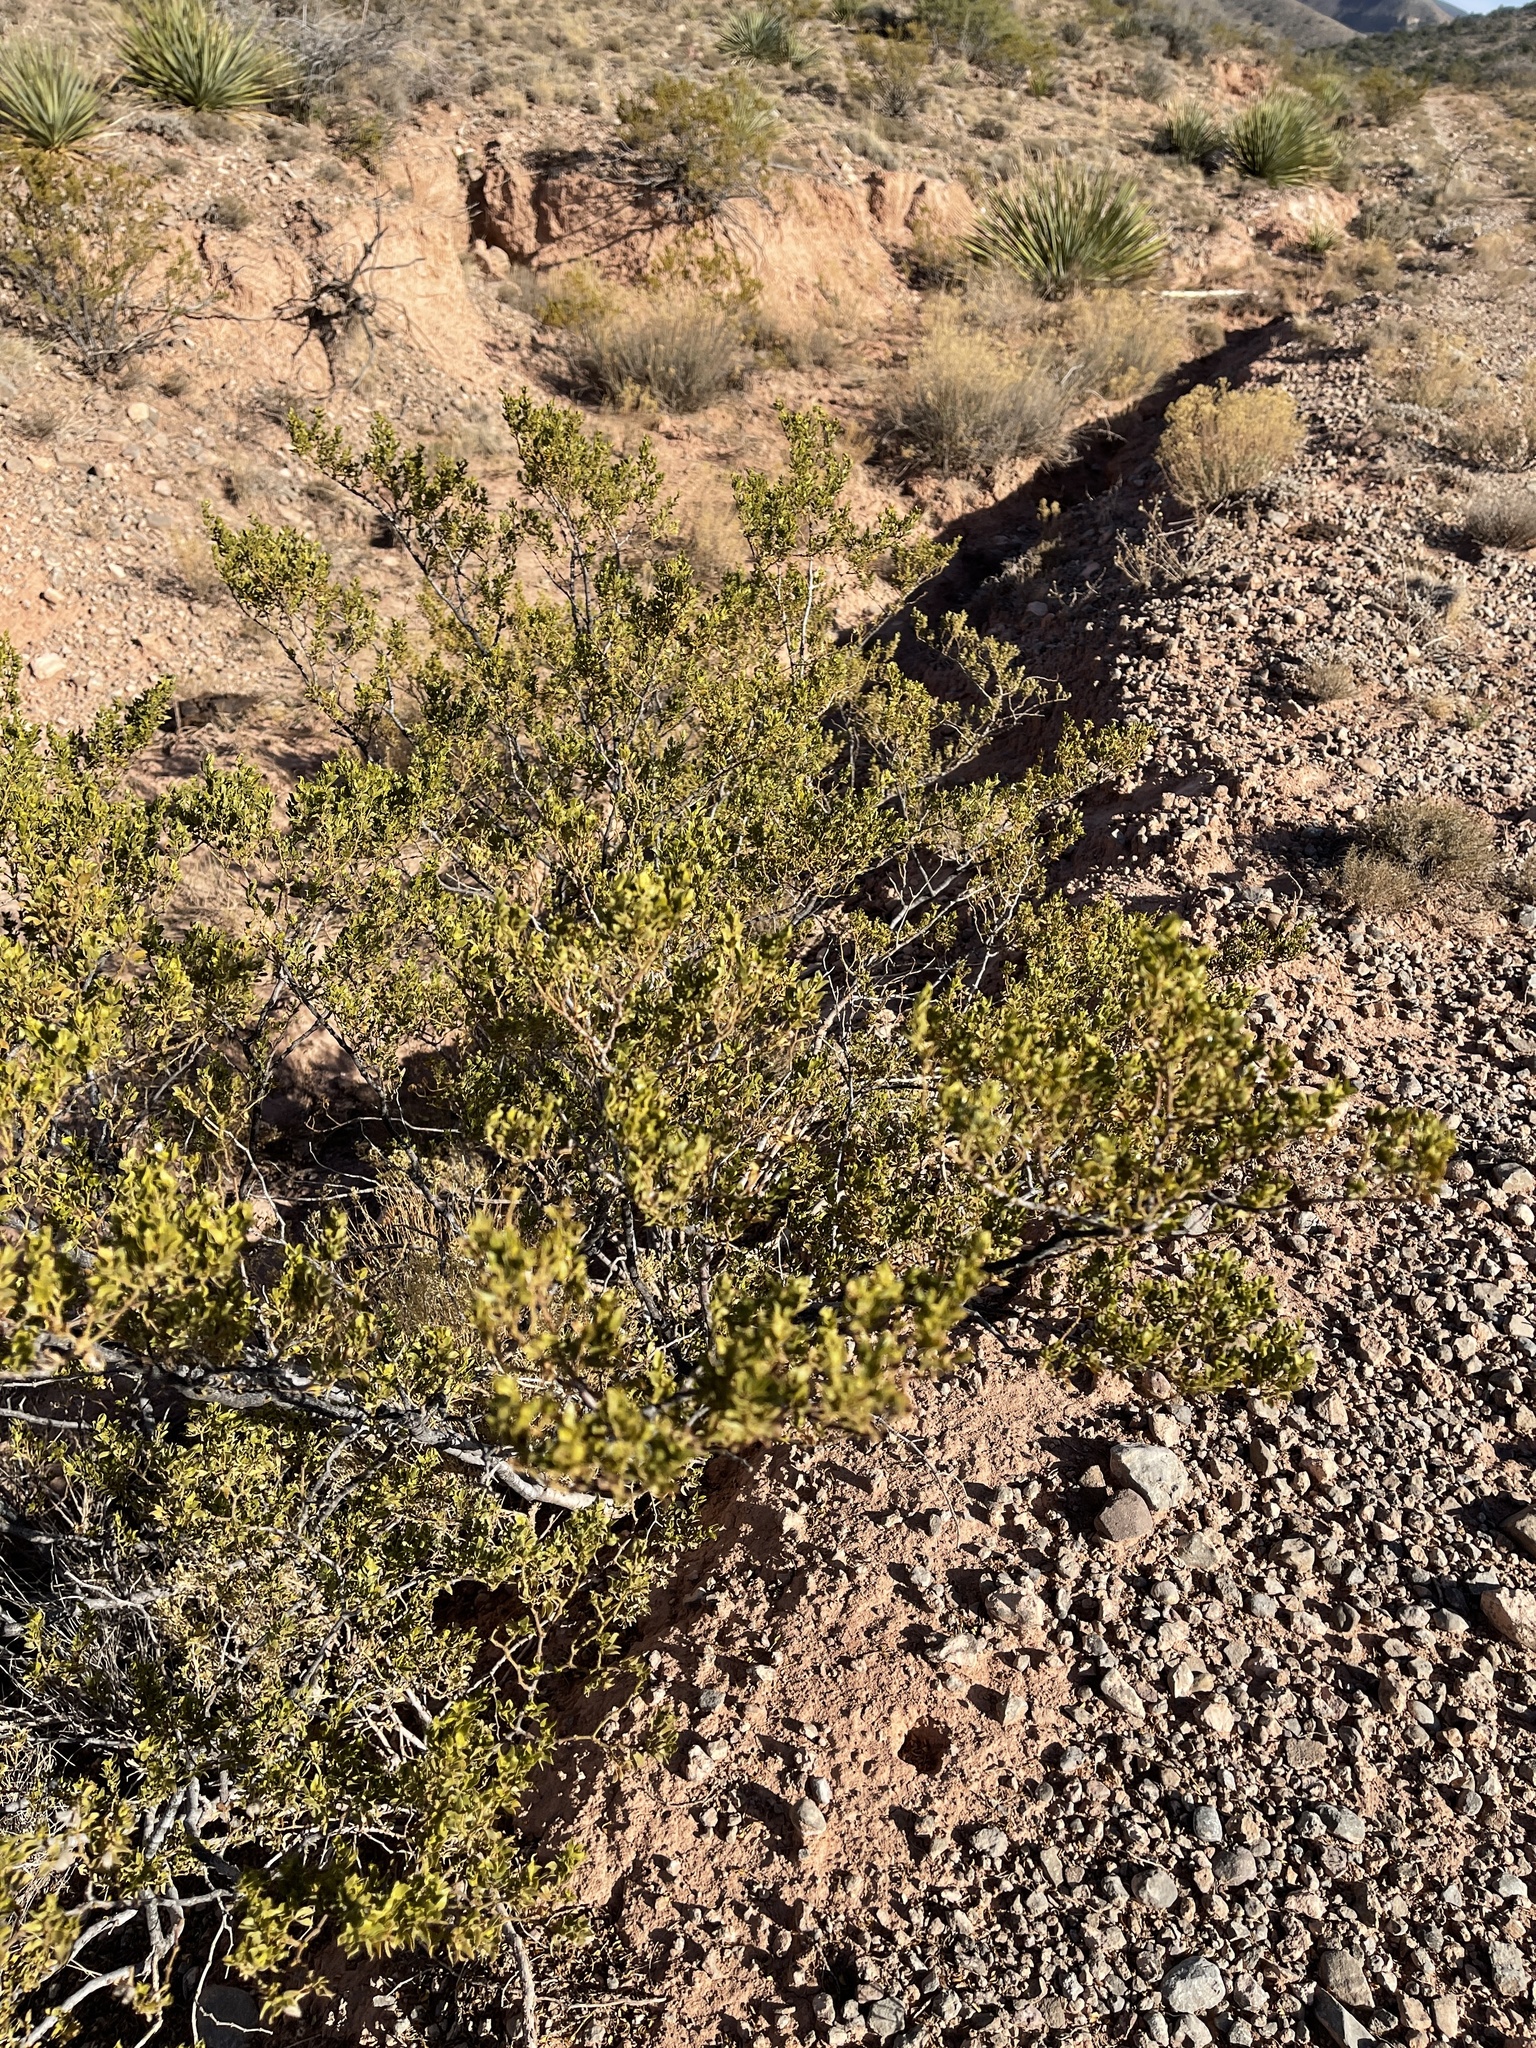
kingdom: Plantae
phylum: Tracheophyta
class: Magnoliopsida
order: Zygophyllales
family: Zygophyllaceae
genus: Larrea
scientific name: Larrea tridentata
